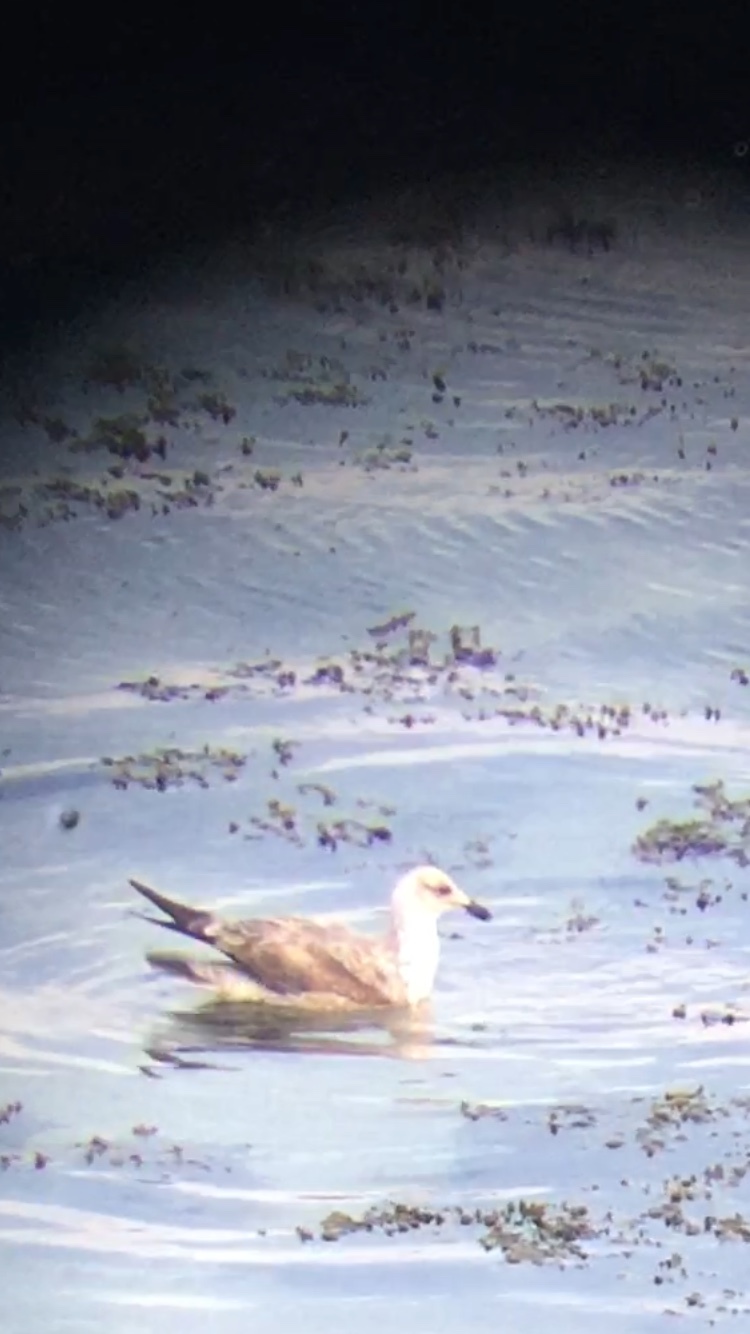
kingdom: Animalia
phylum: Chordata
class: Aves
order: Charadriiformes
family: Laridae
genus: Larus
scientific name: Larus fuscus
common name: Lesser black-backed gull
